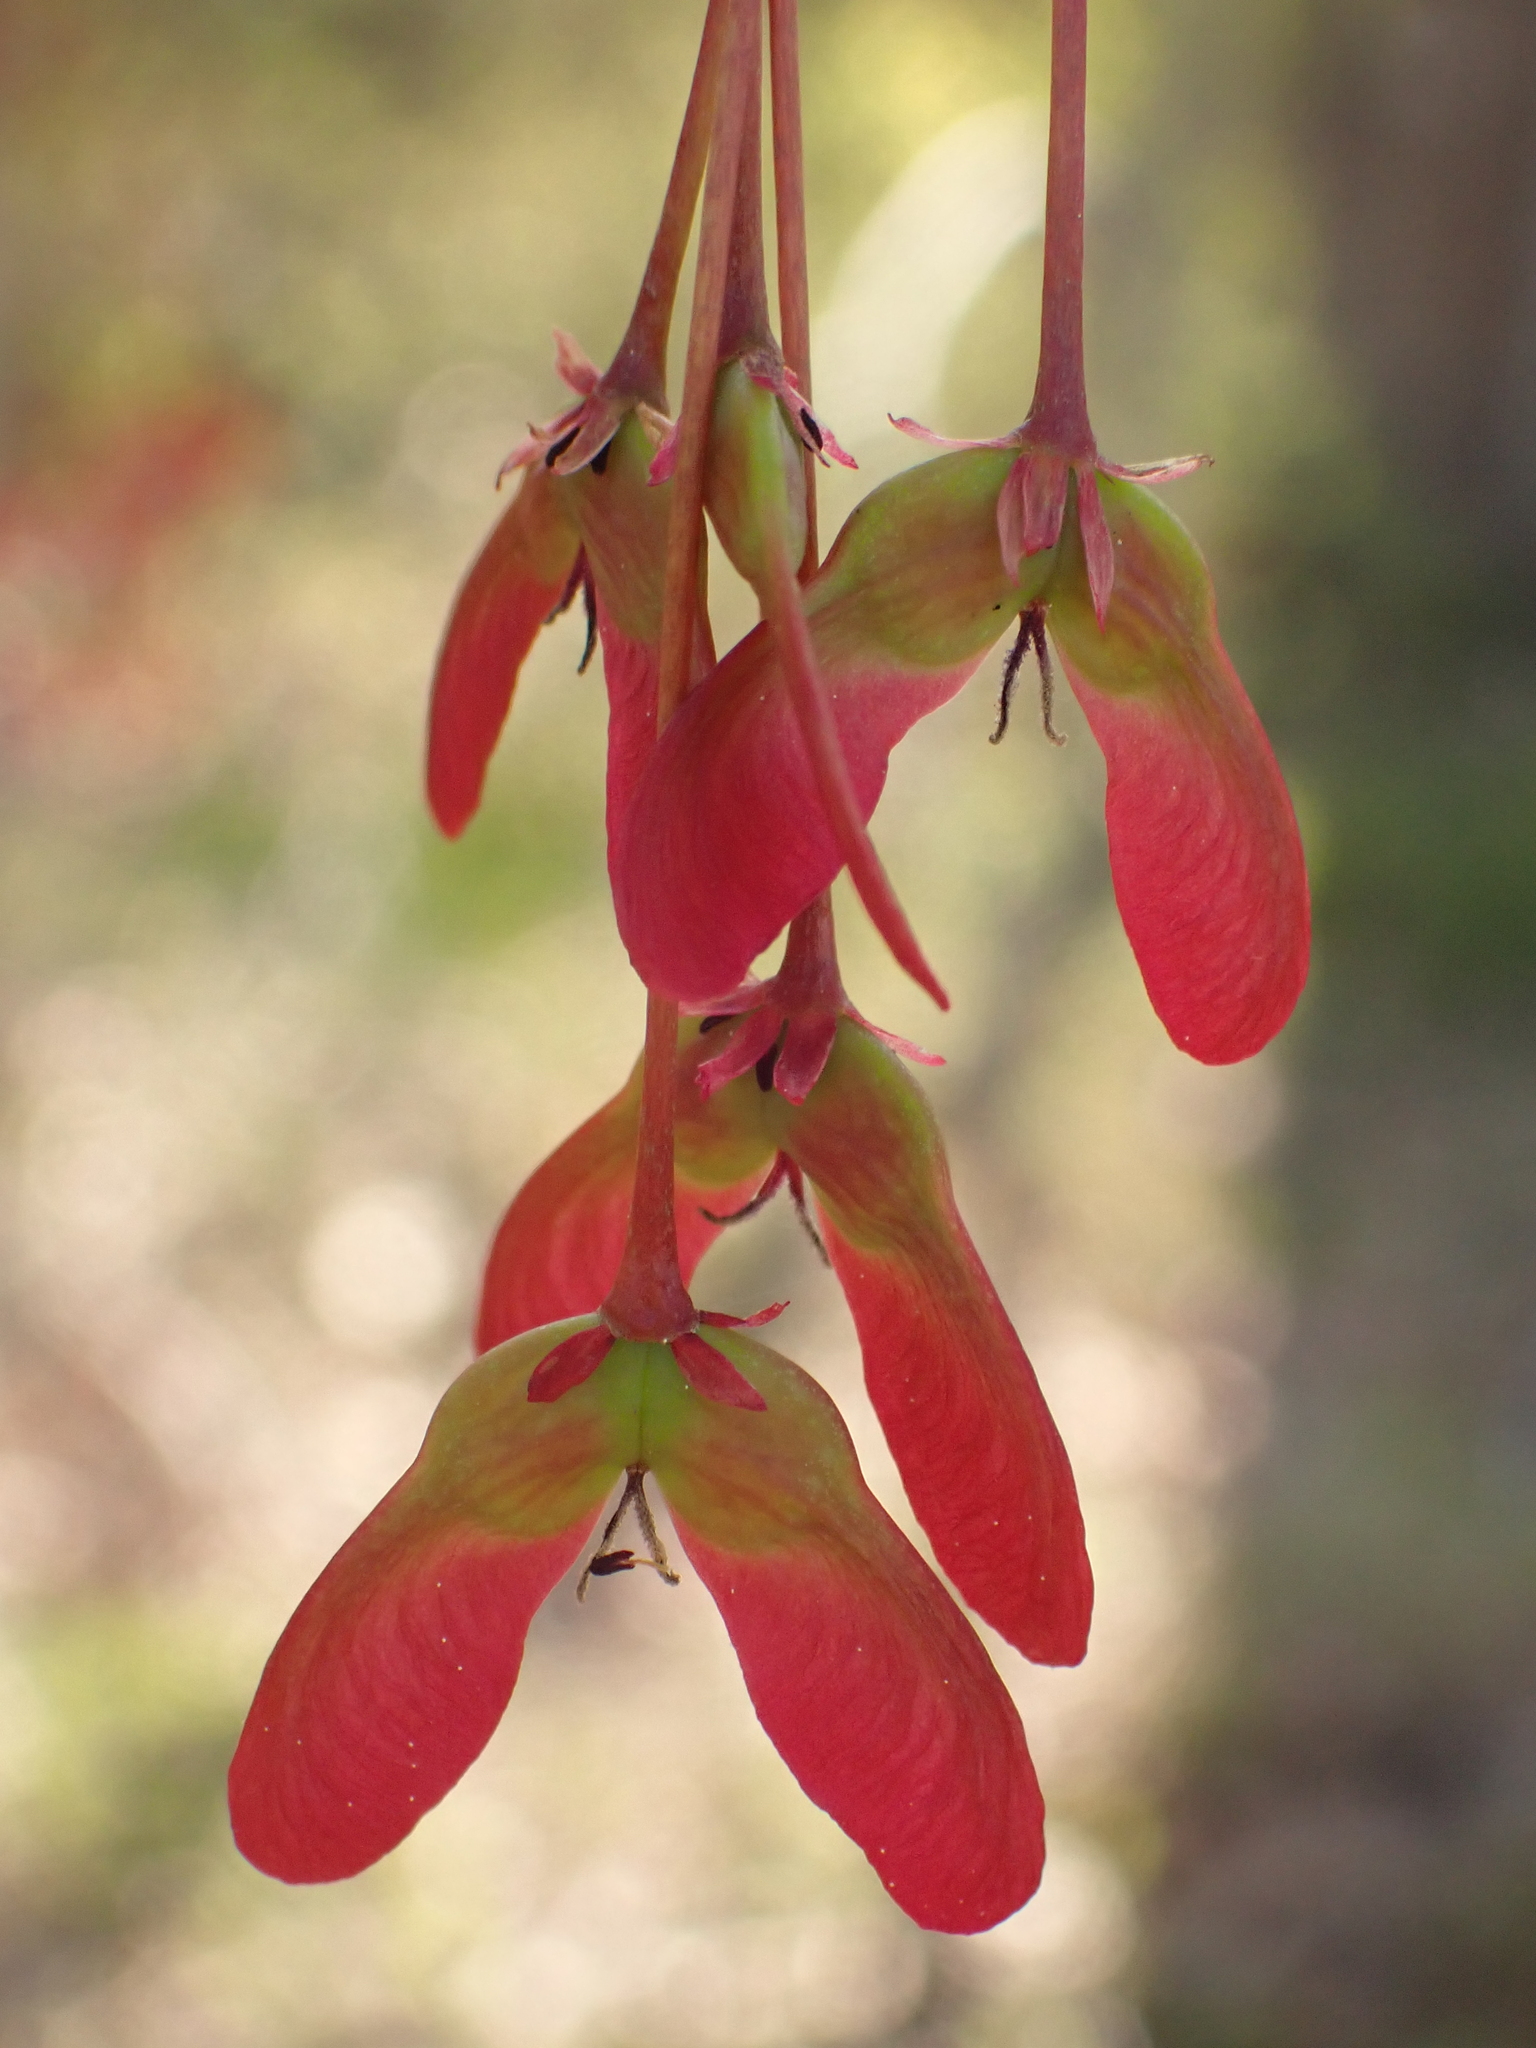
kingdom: Plantae
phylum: Tracheophyta
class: Magnoliopsida
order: Sapindales
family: Sapindaceae
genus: Acer
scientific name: Acer rubrum
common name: Red maple
